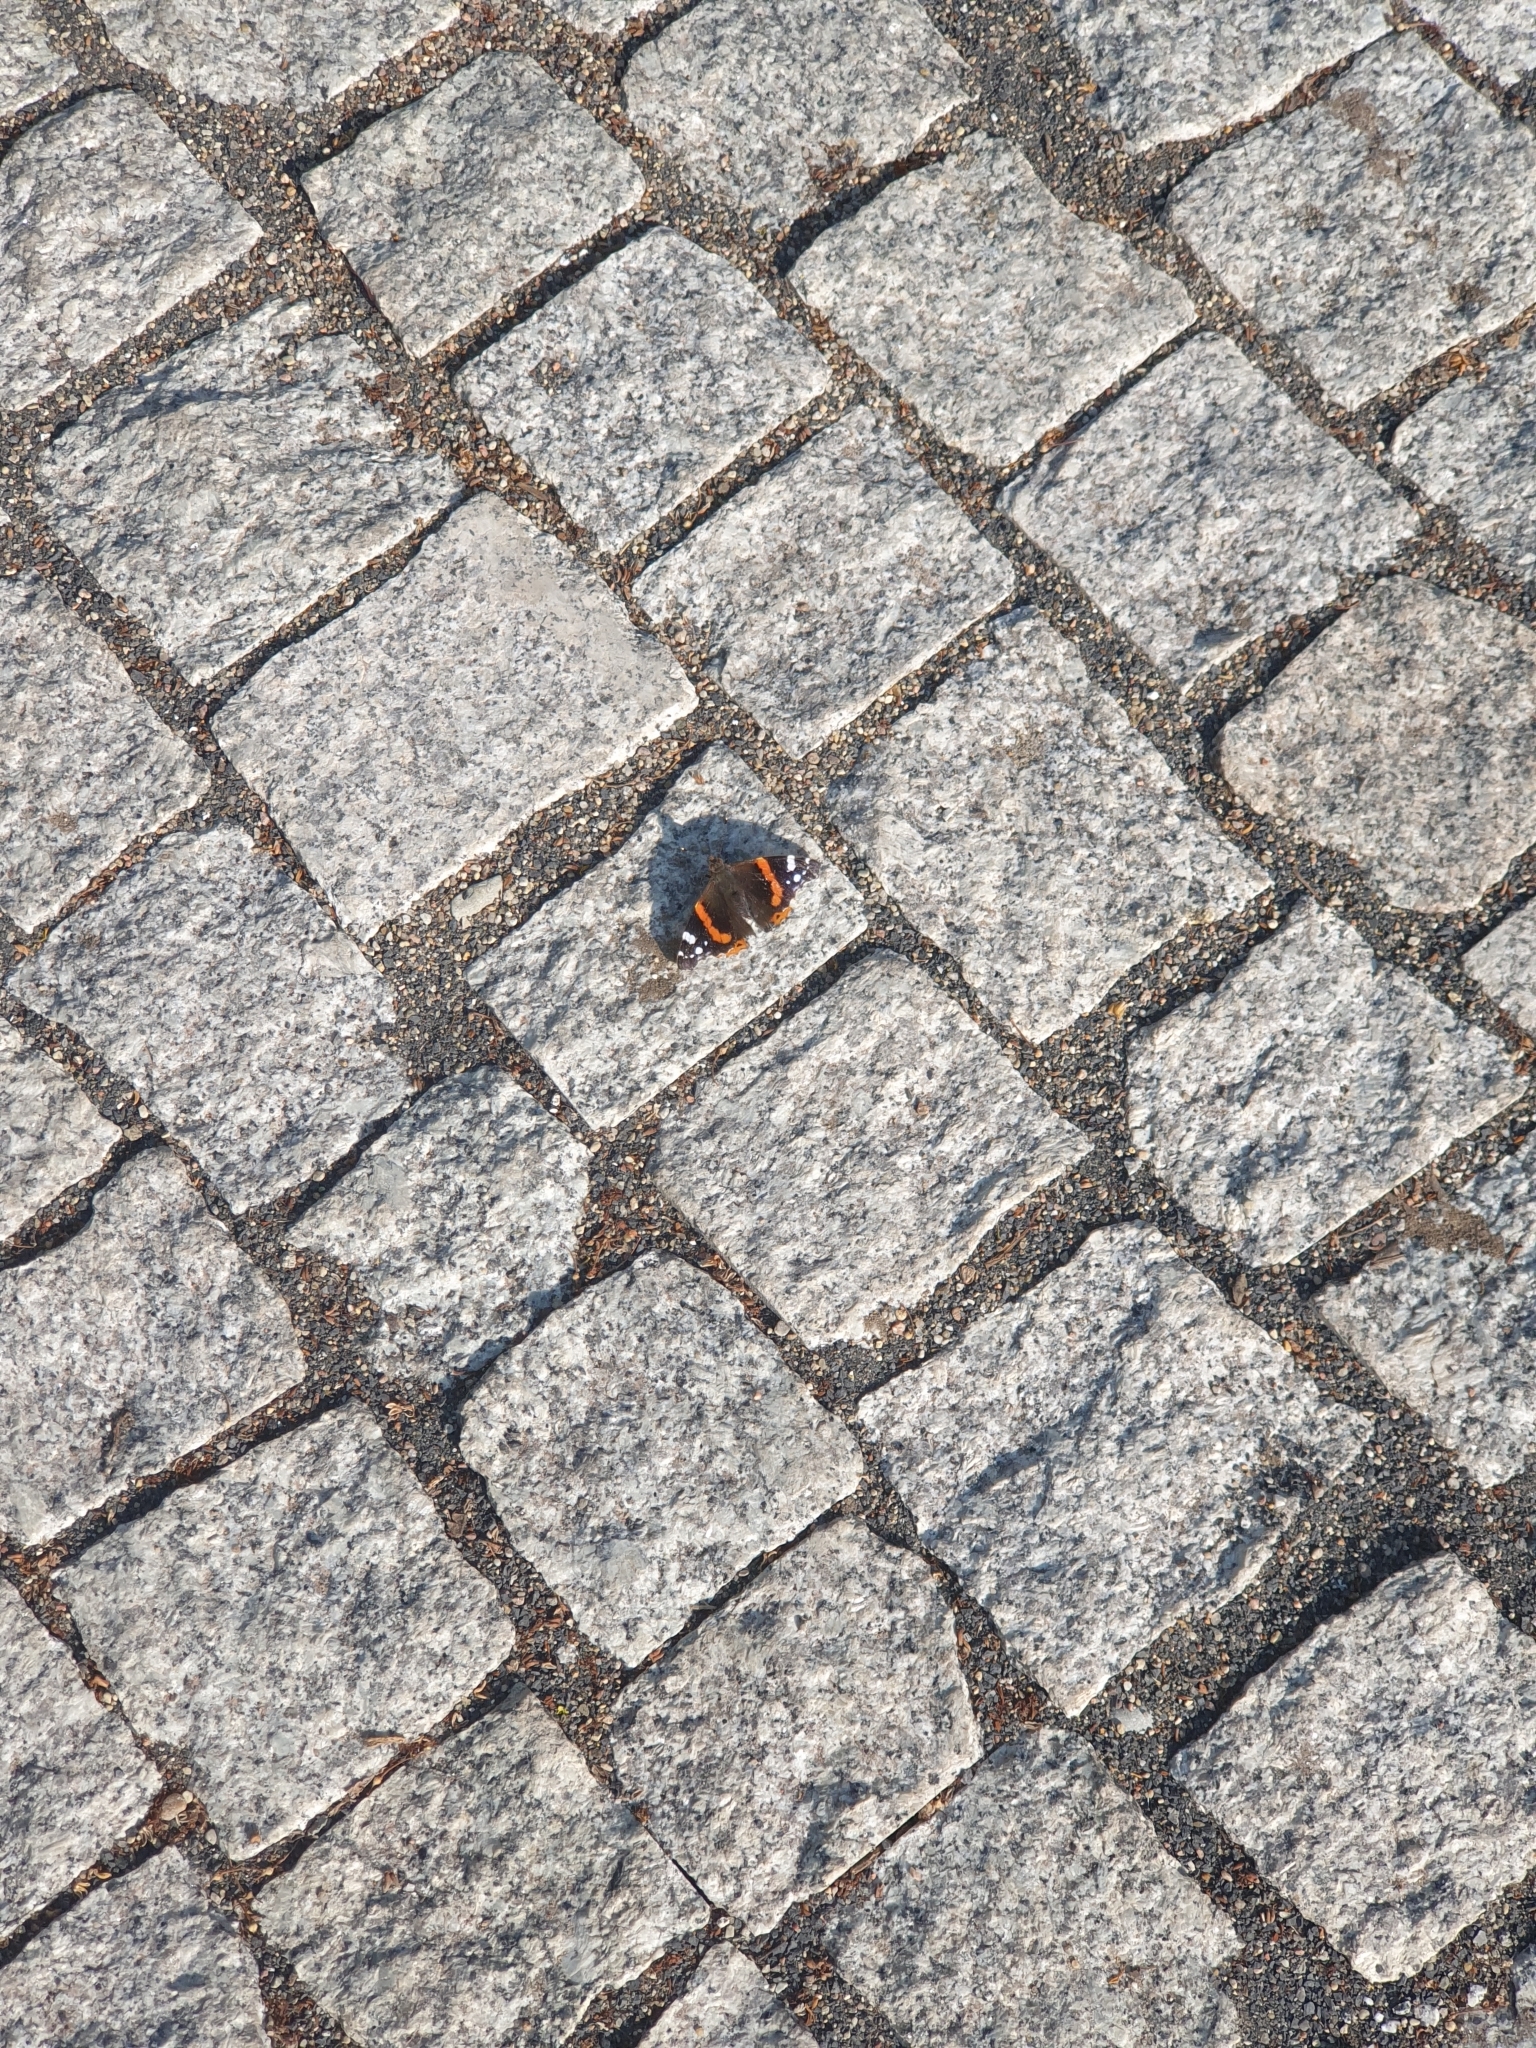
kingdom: Animalia
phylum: Arthropoda
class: Insecta
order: Lepidoptera
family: Nymphalidae
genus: Vanessa
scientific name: Vanessa atalanta
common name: Red admiral
